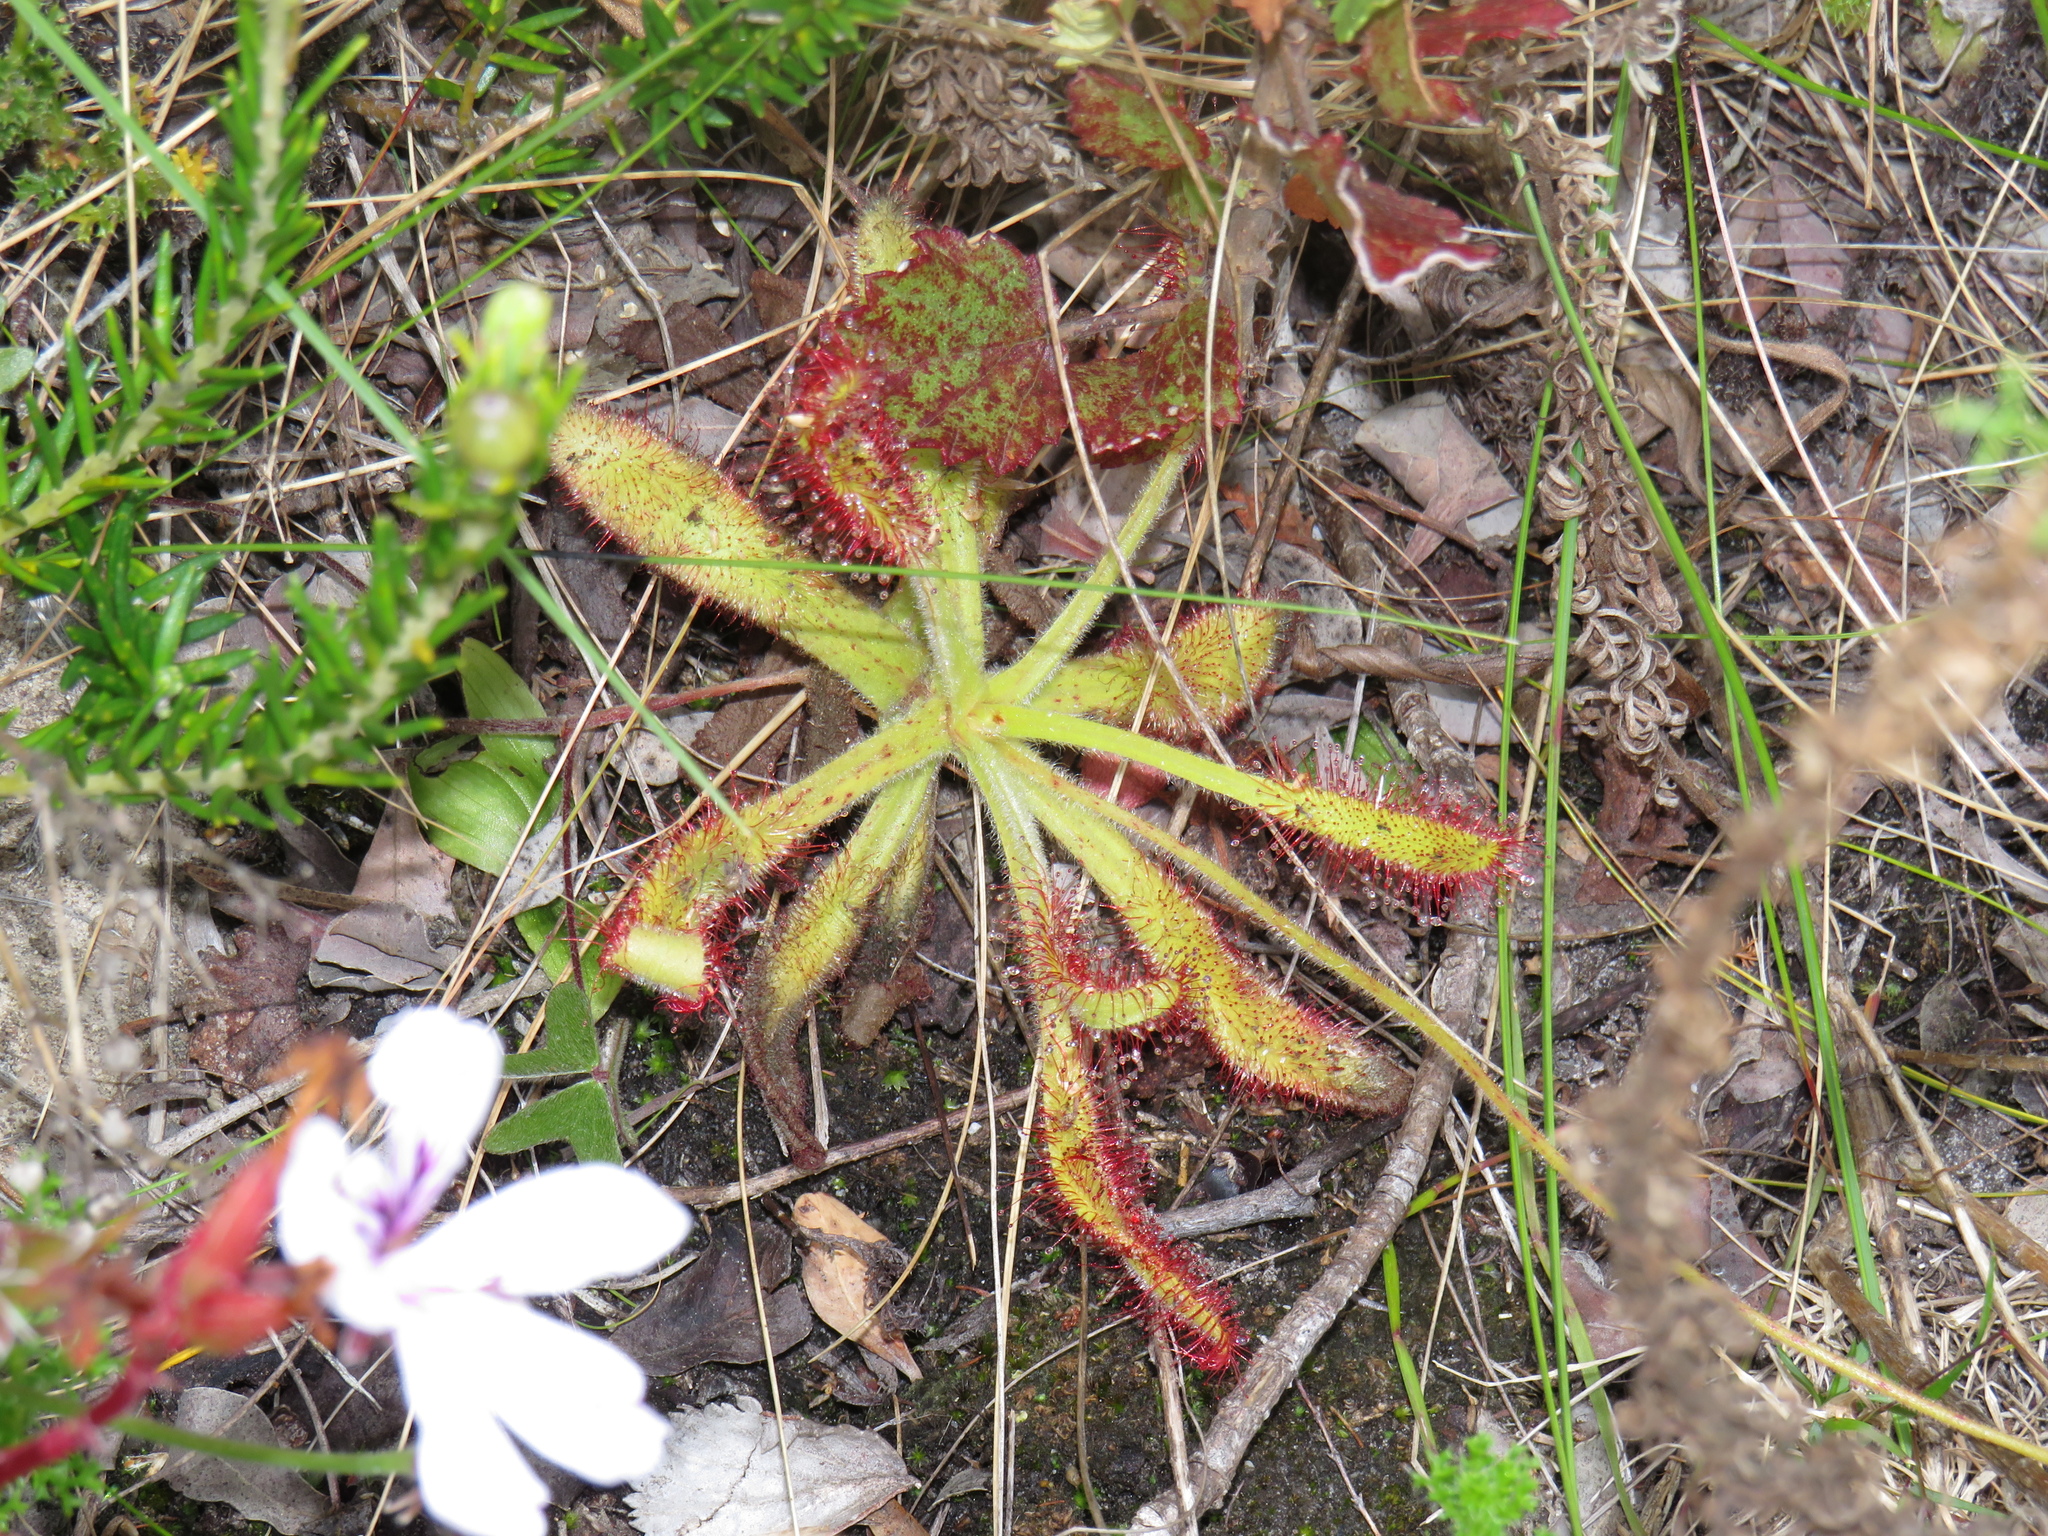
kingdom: Plantae
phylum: Tracheophyta
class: Magnoliopsida
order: Caryophyllales
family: Droseraceae
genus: Drosera
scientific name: Drosera hilaris
